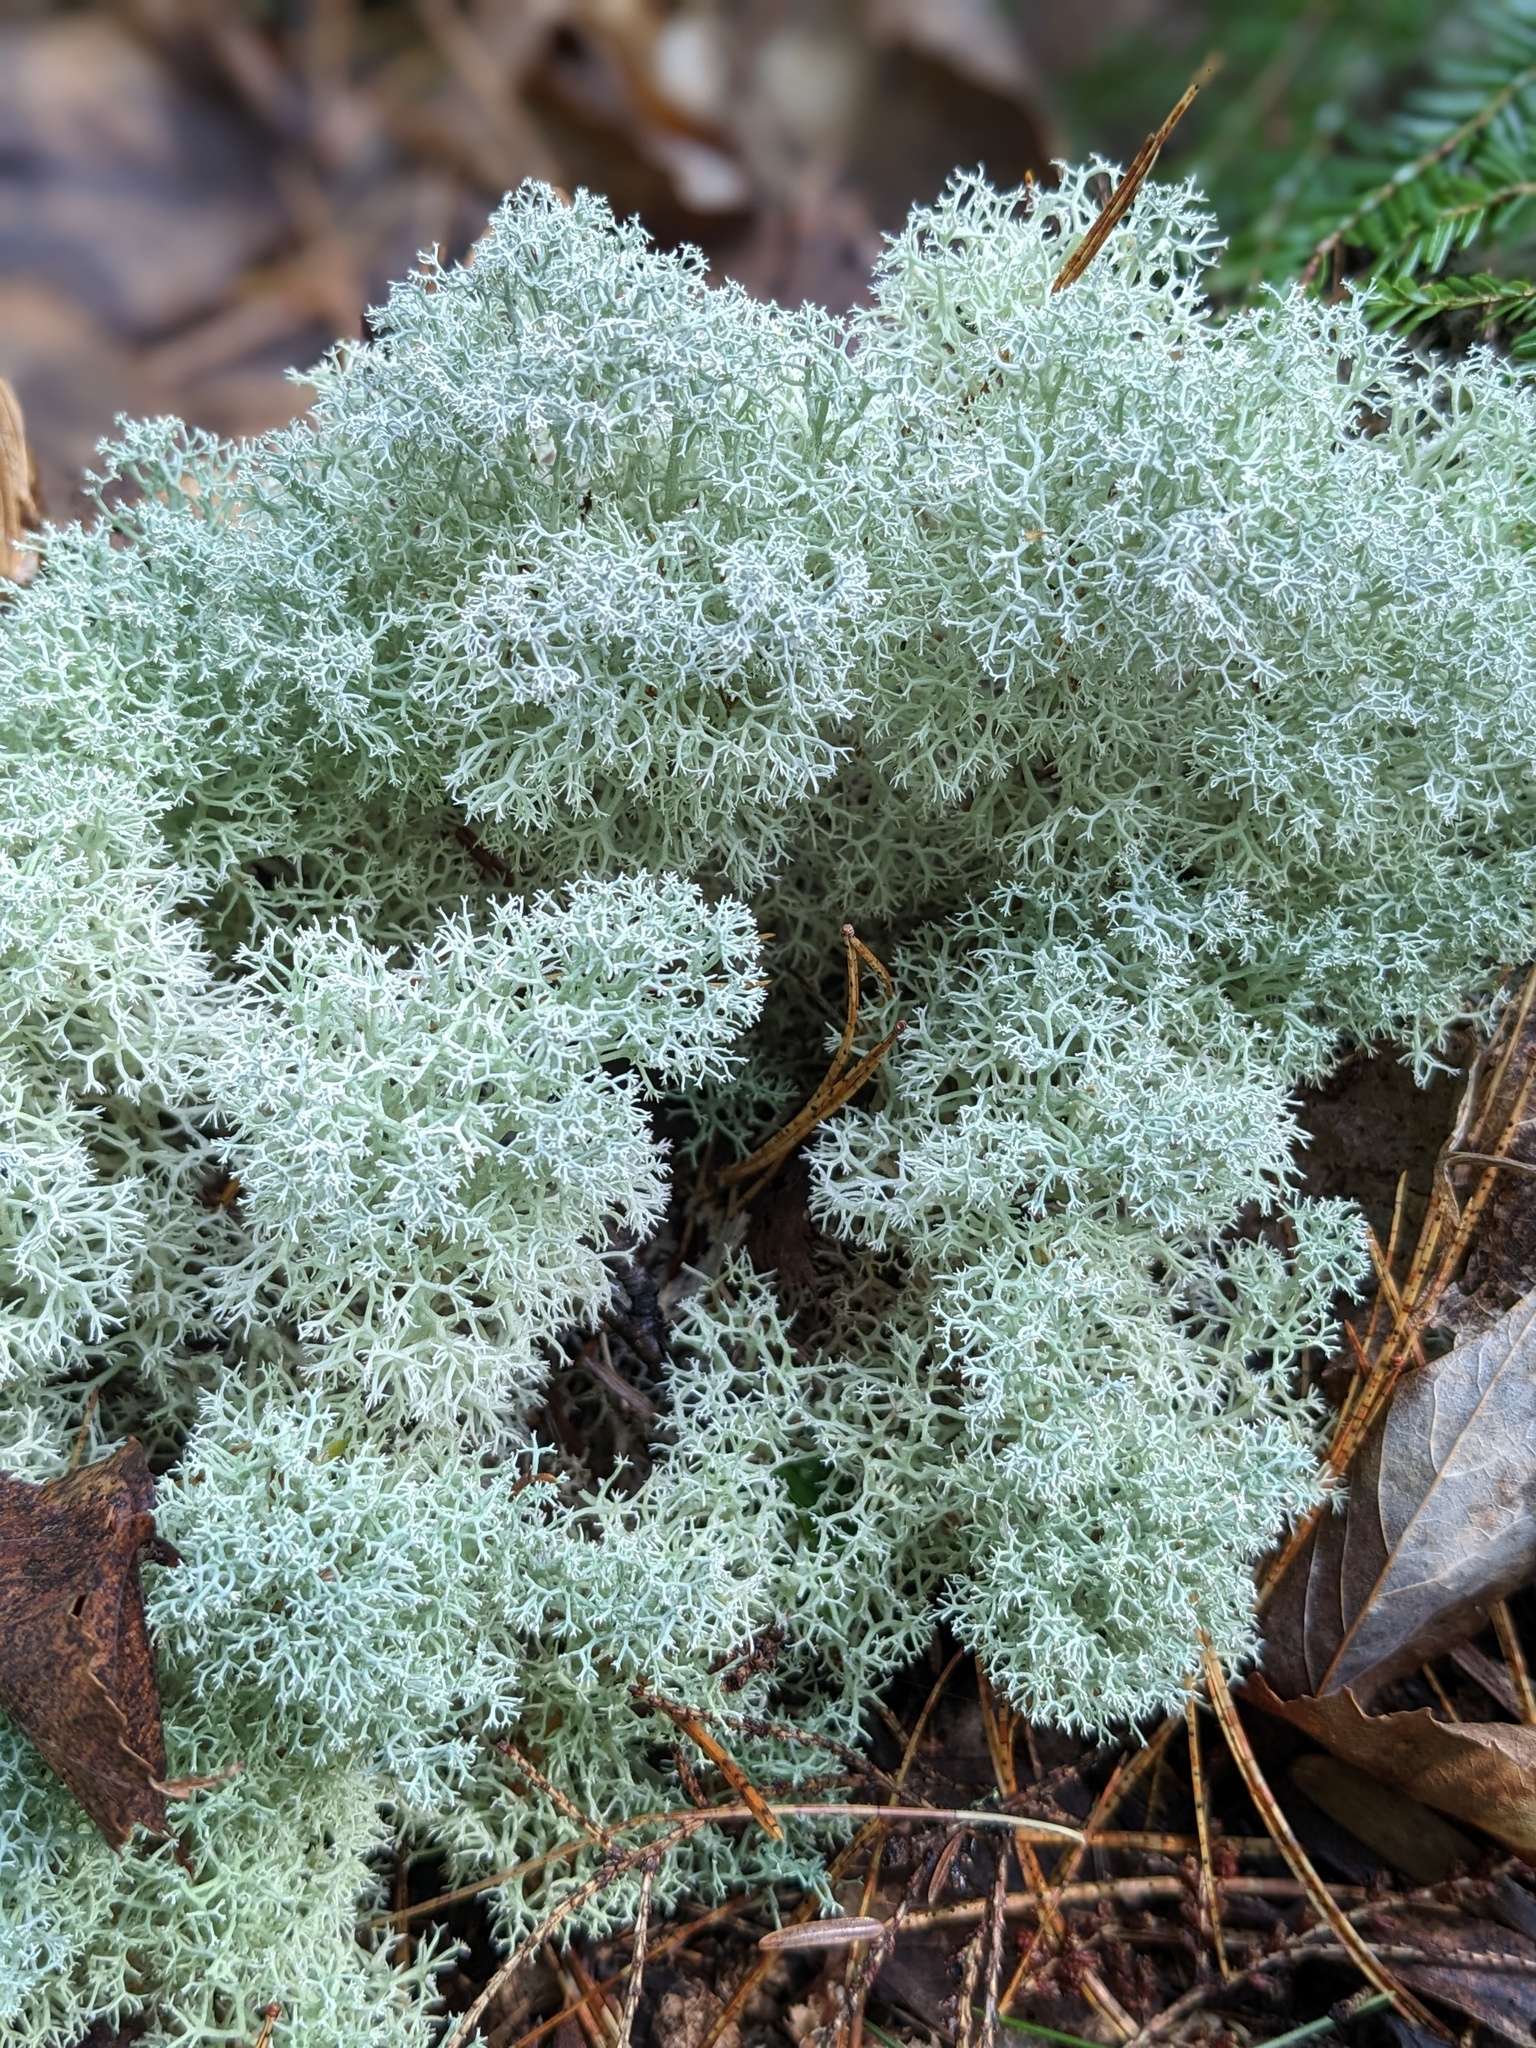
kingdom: Fungi
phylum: Ascomycota
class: Lecanoromycetes
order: Lecanorales
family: Cladoniaceae
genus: Cladonia
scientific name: Cladonia stellaris
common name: Star-tipped reindeer lichen
